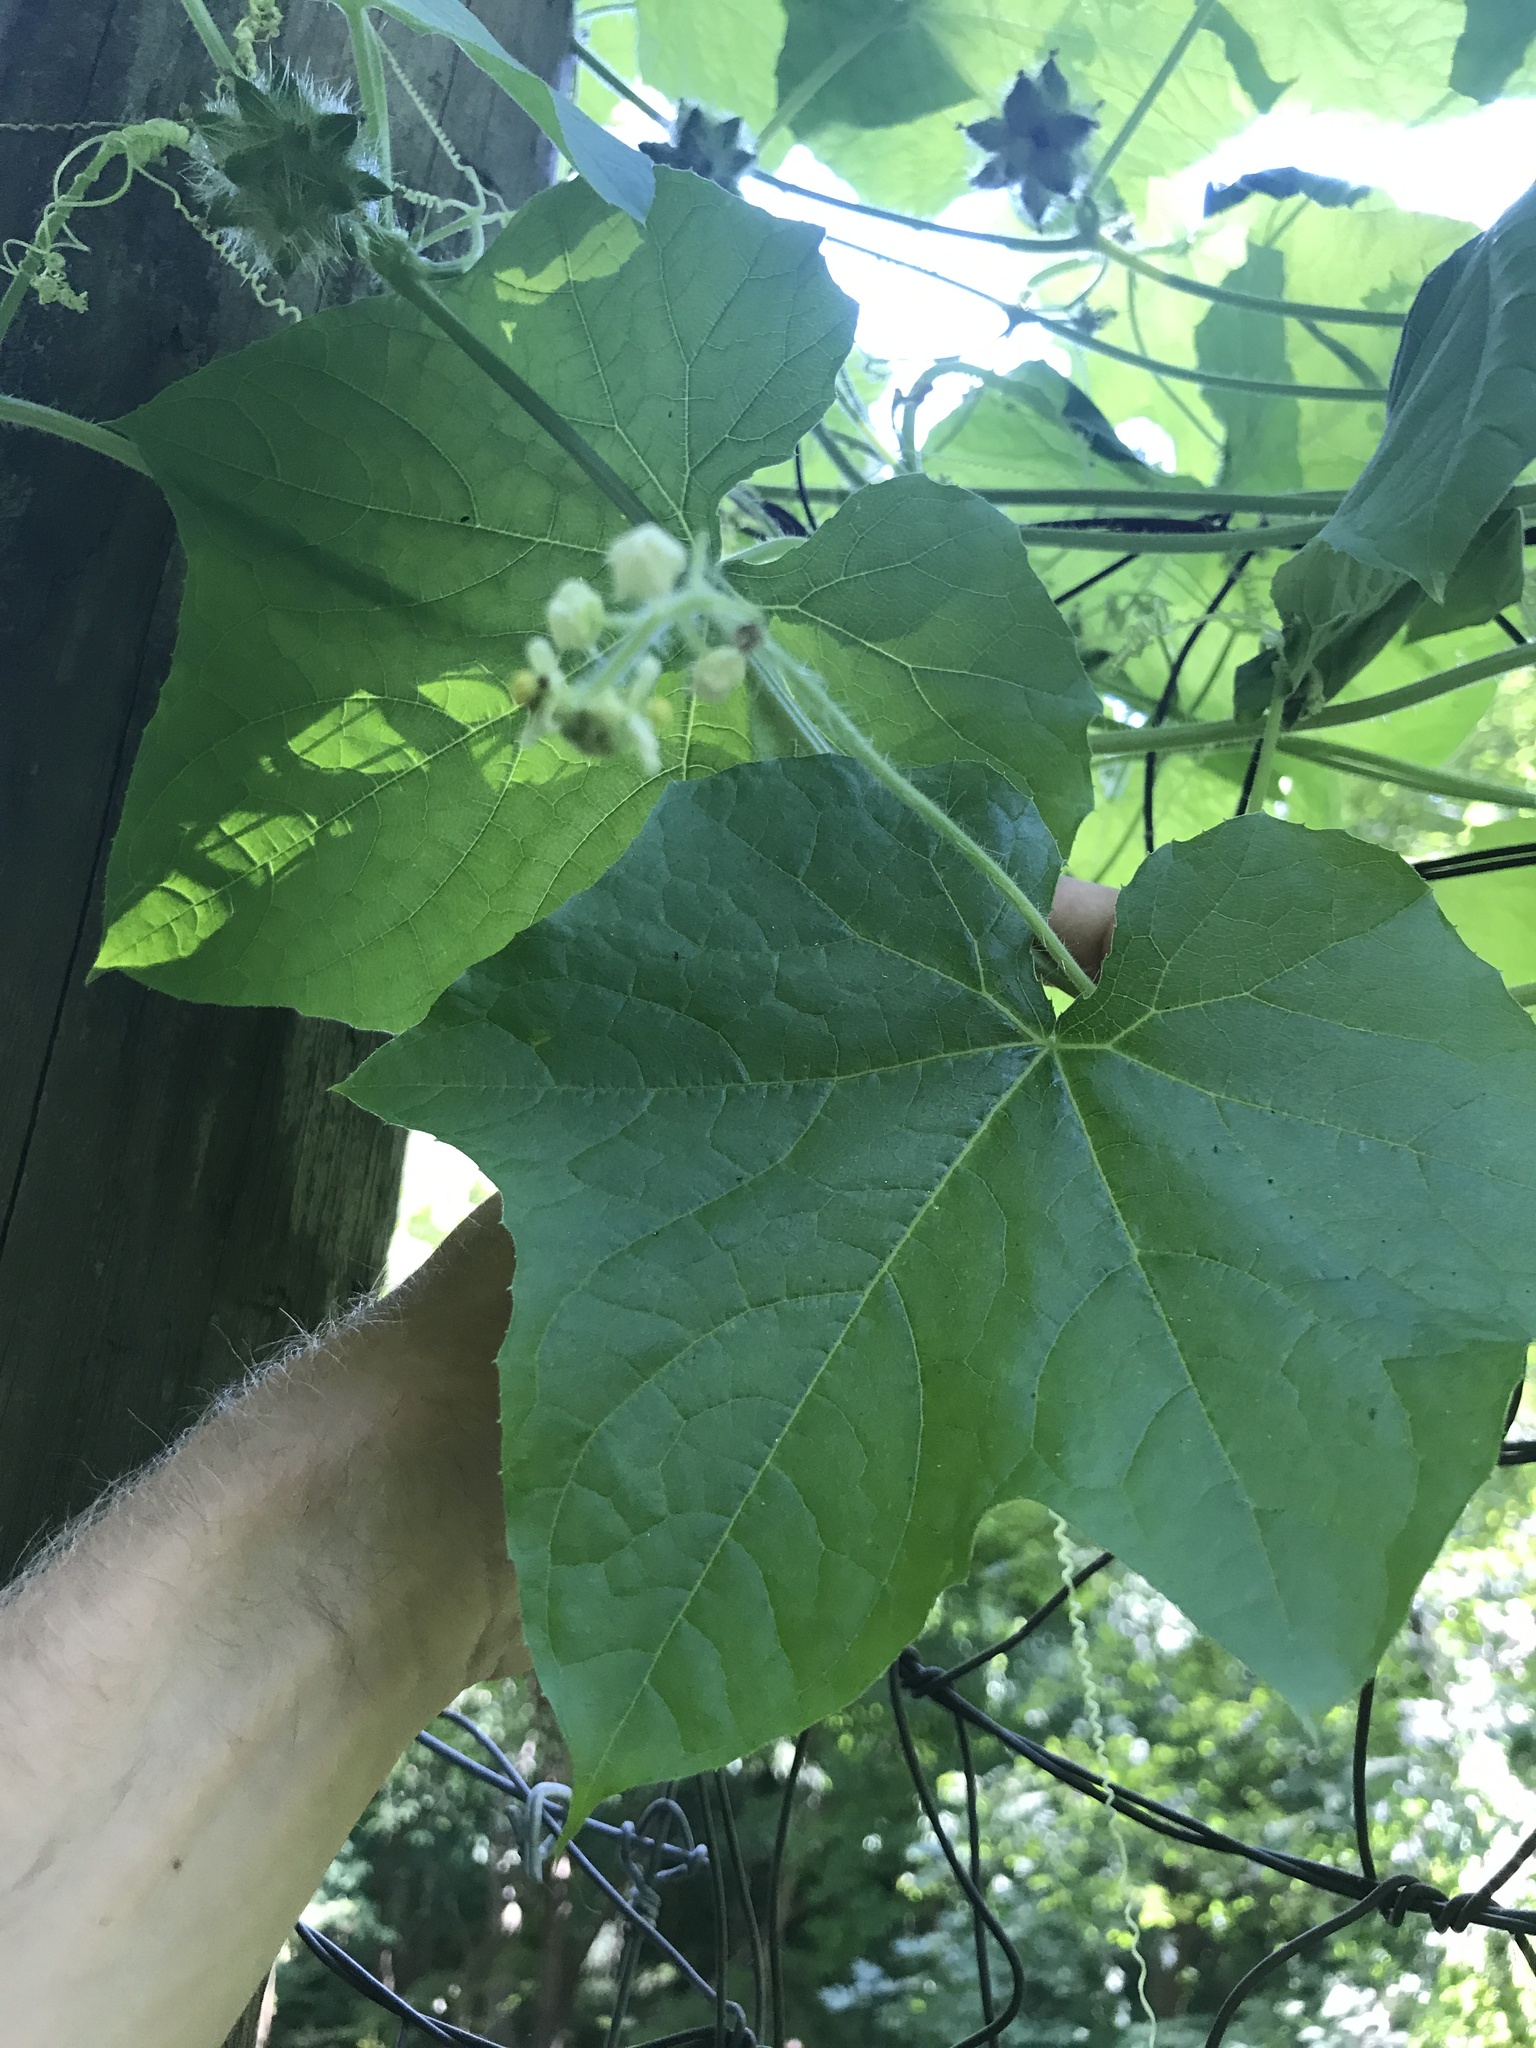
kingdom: Plantae
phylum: Tracheophyta
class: Magnoliopsida
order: Cucurbitales
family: Cucurbitaceae
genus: Sicyos
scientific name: Sicyos angulatus
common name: Angled burr cucumber
